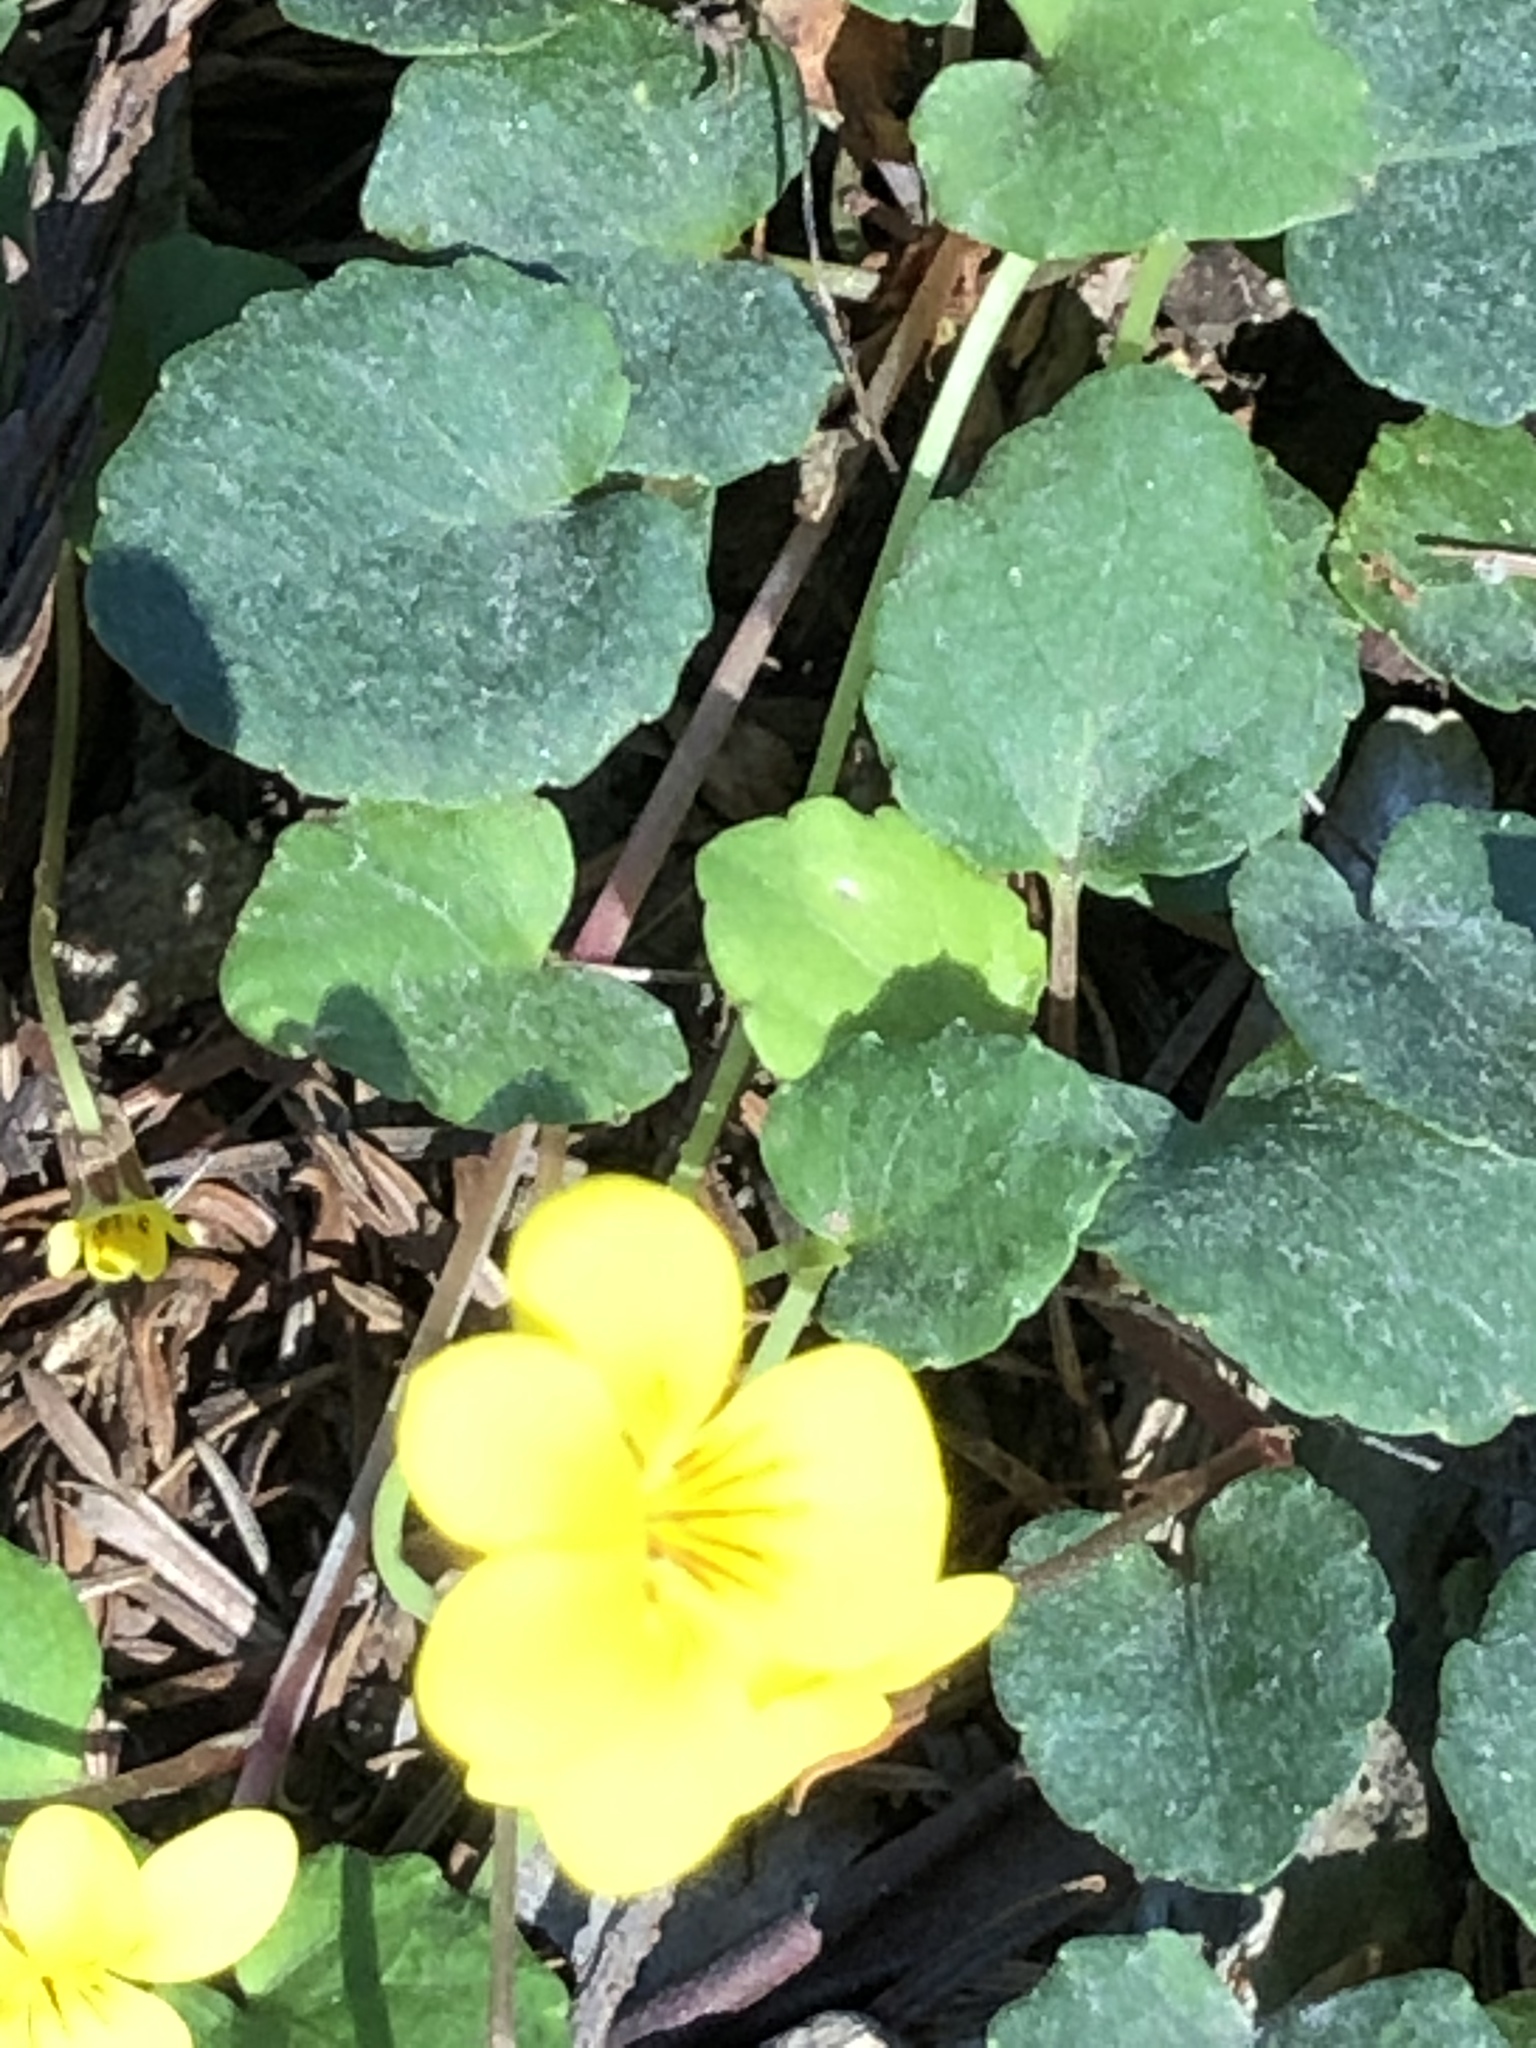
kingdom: Plantae
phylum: Tracheophyta
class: Magnoliopsida
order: Malpighiales
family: Violaceae
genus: Viola
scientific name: Viola sempervirens
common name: Evergreen violet
